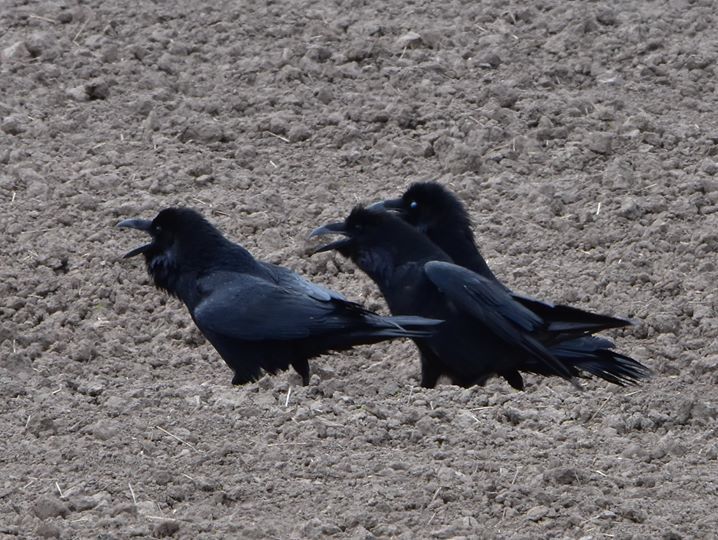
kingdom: Animalia
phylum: Chordata
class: Aves
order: Passeriformes
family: Corvidae
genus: Corvus
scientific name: Corvus corax
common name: Common raven
